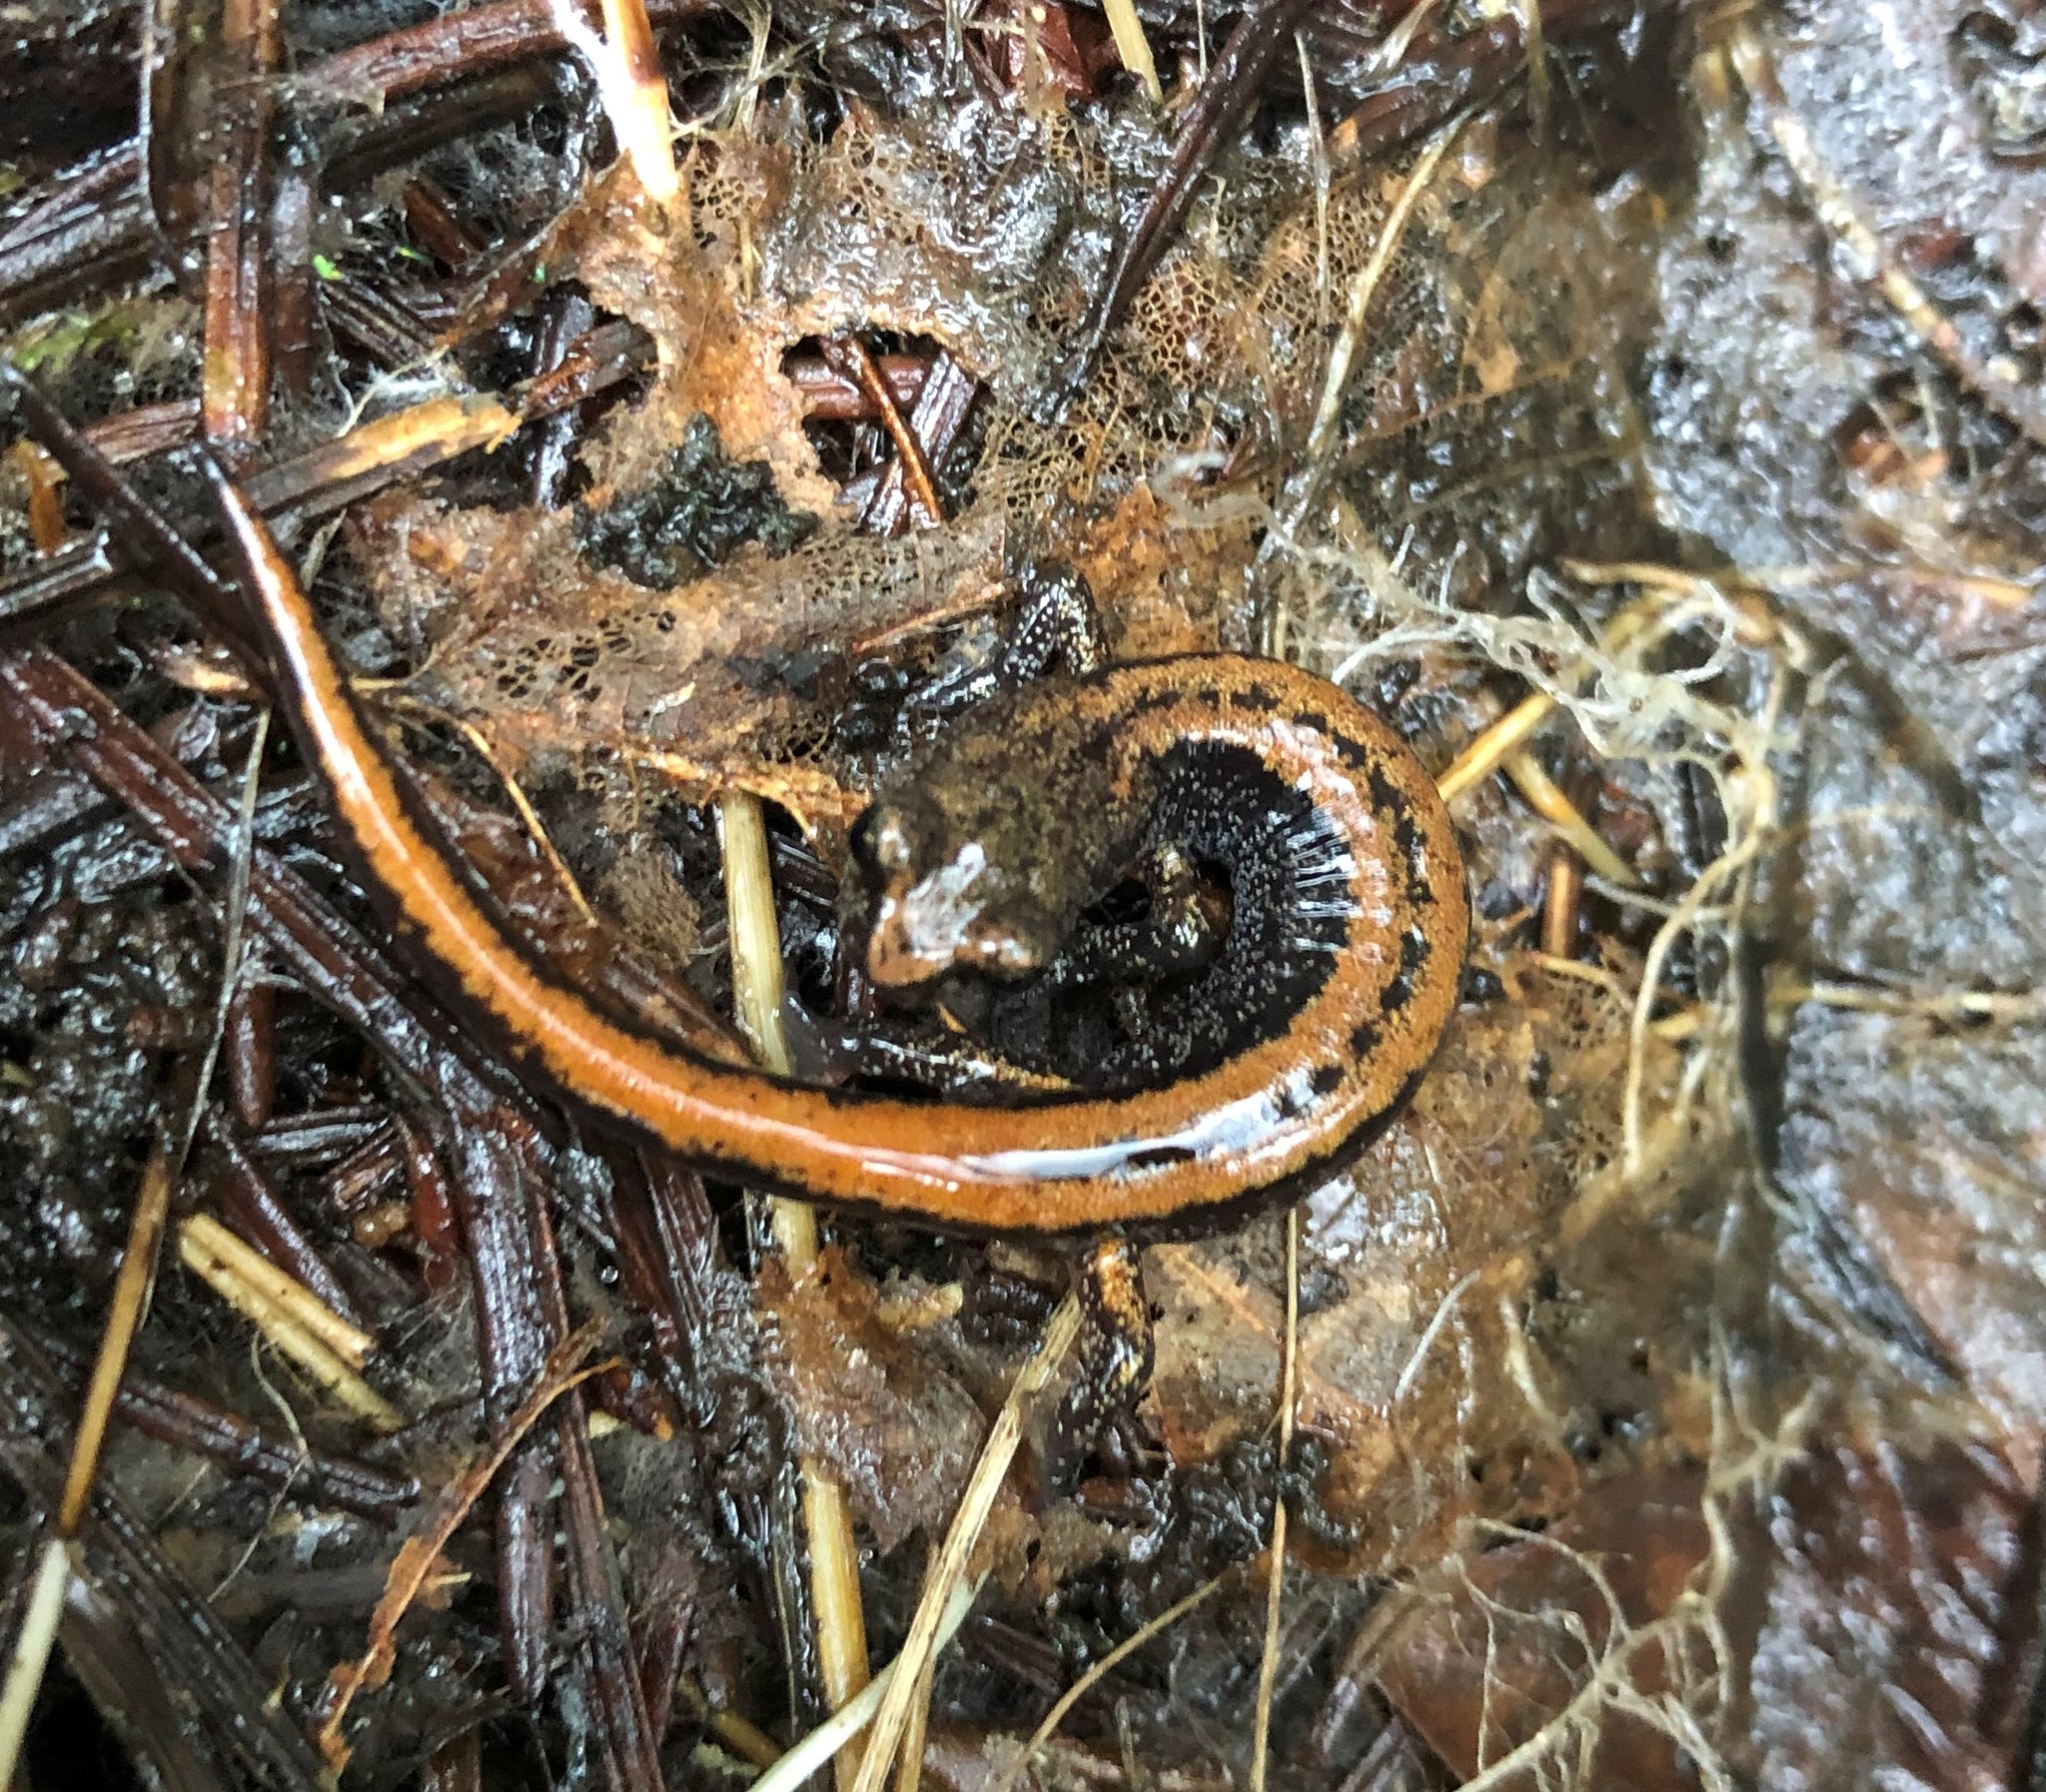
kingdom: Animalia
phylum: Chordata
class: Amphibia
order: Caudata
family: Plethodontidae
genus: Plethodon
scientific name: Plethodon larselli
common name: Larch mountain salamander
